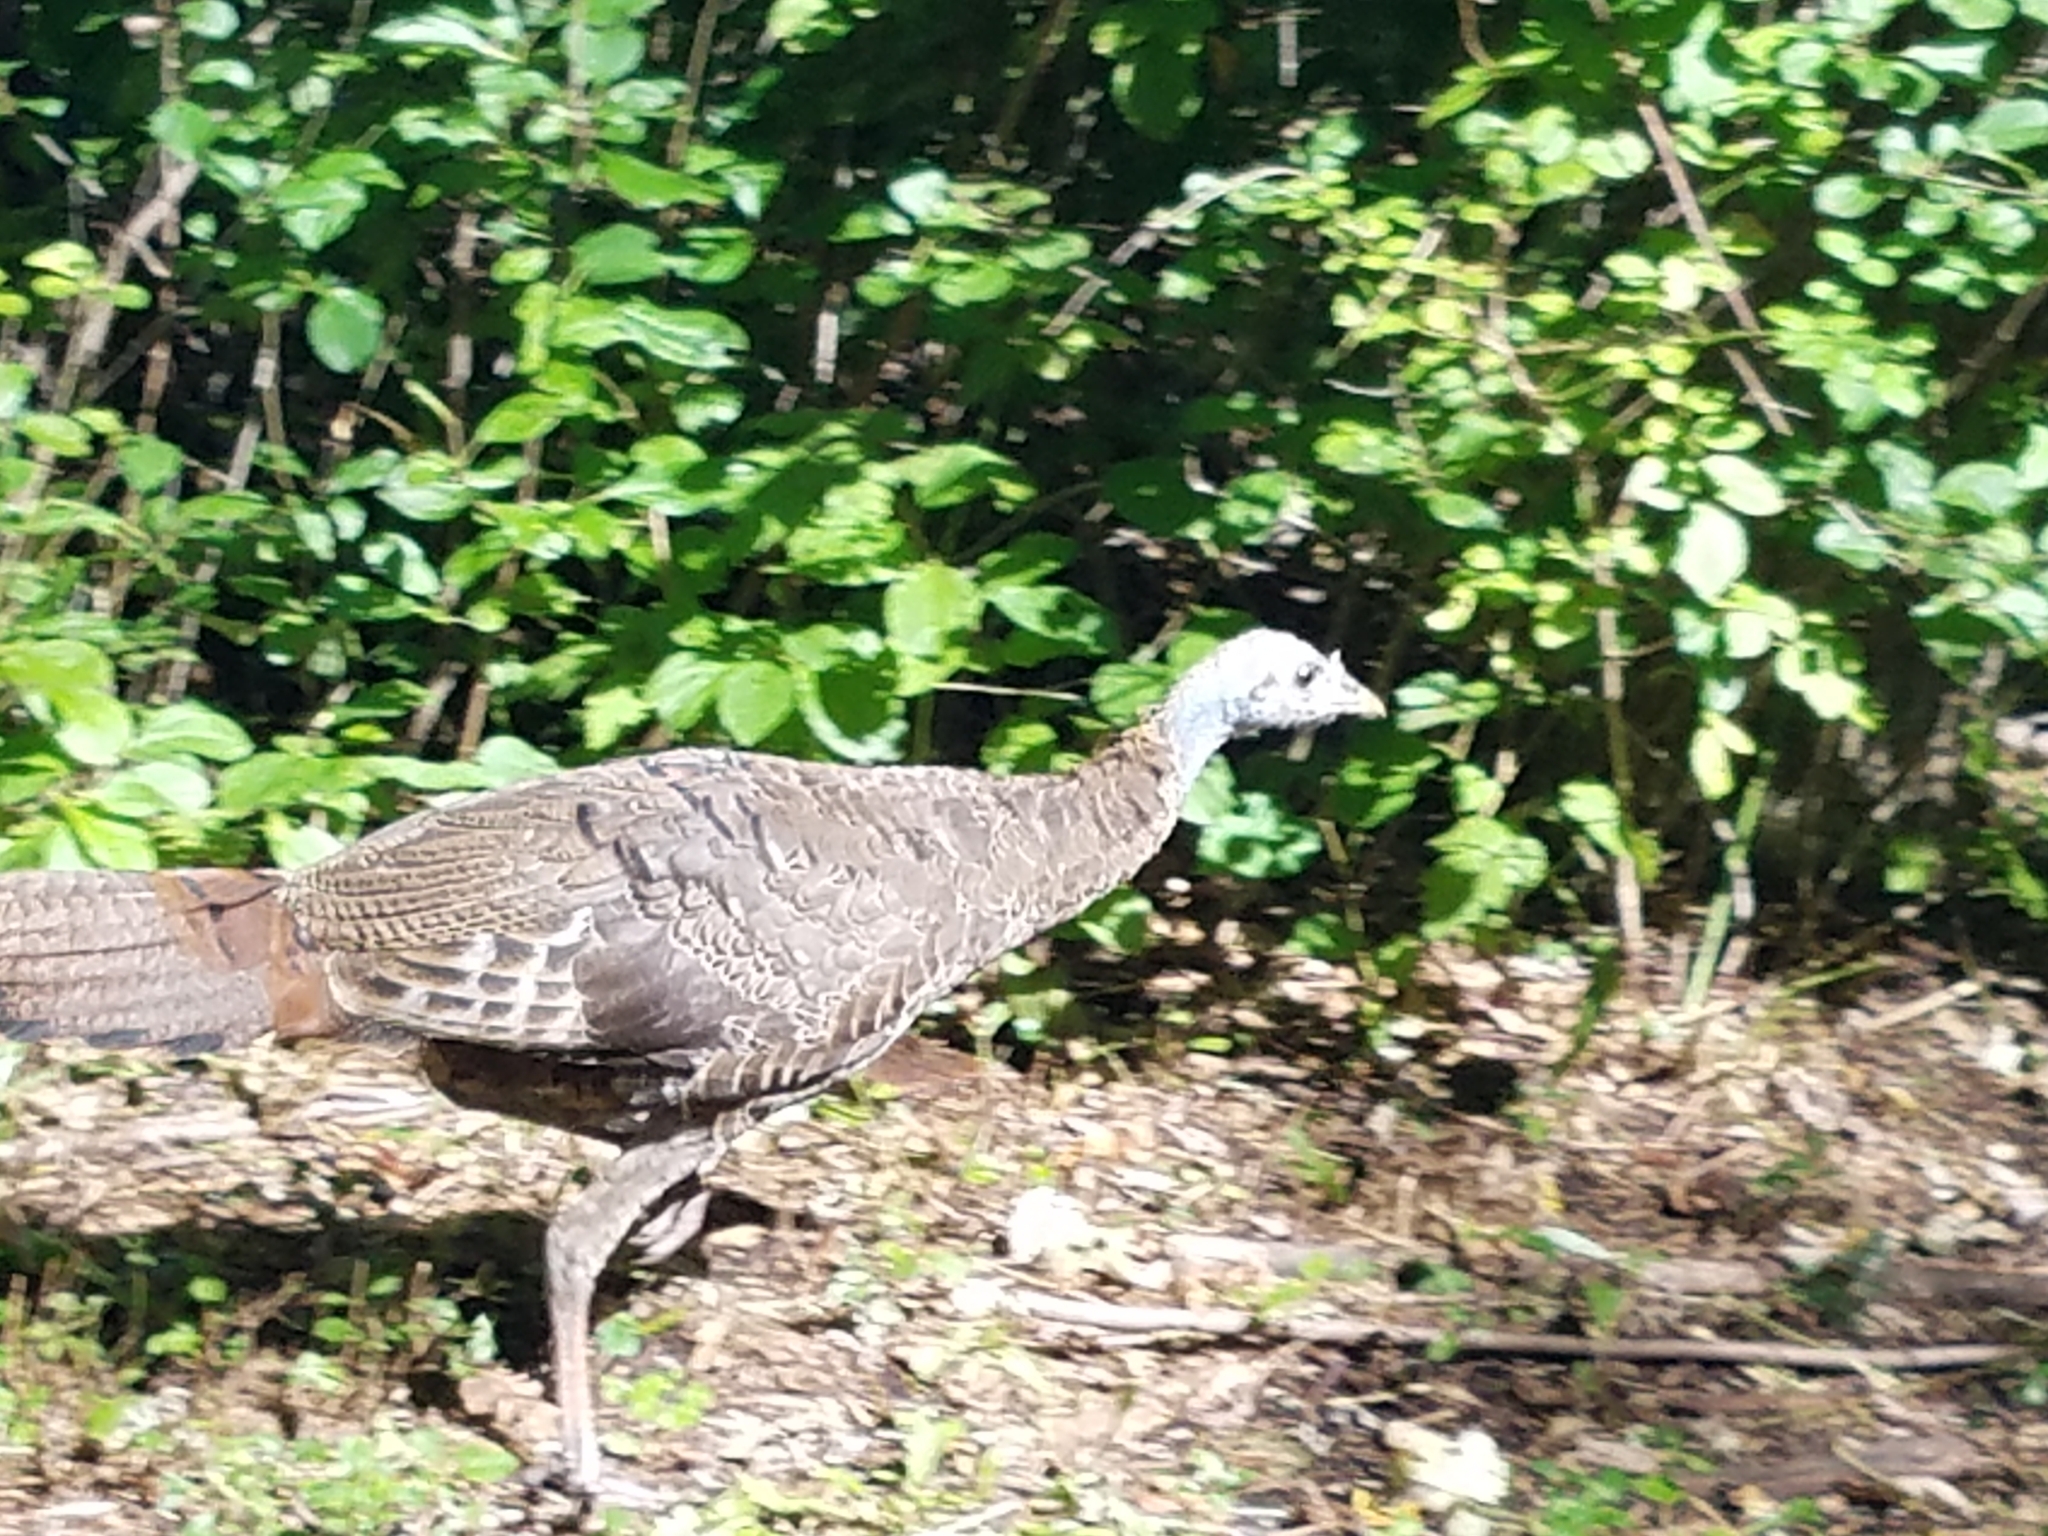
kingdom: Animalia
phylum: Chordata
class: Aves
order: Galliformes
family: Phasianidae
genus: Meleagris
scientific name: Meleagris gallopavo
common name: Wild turkey
